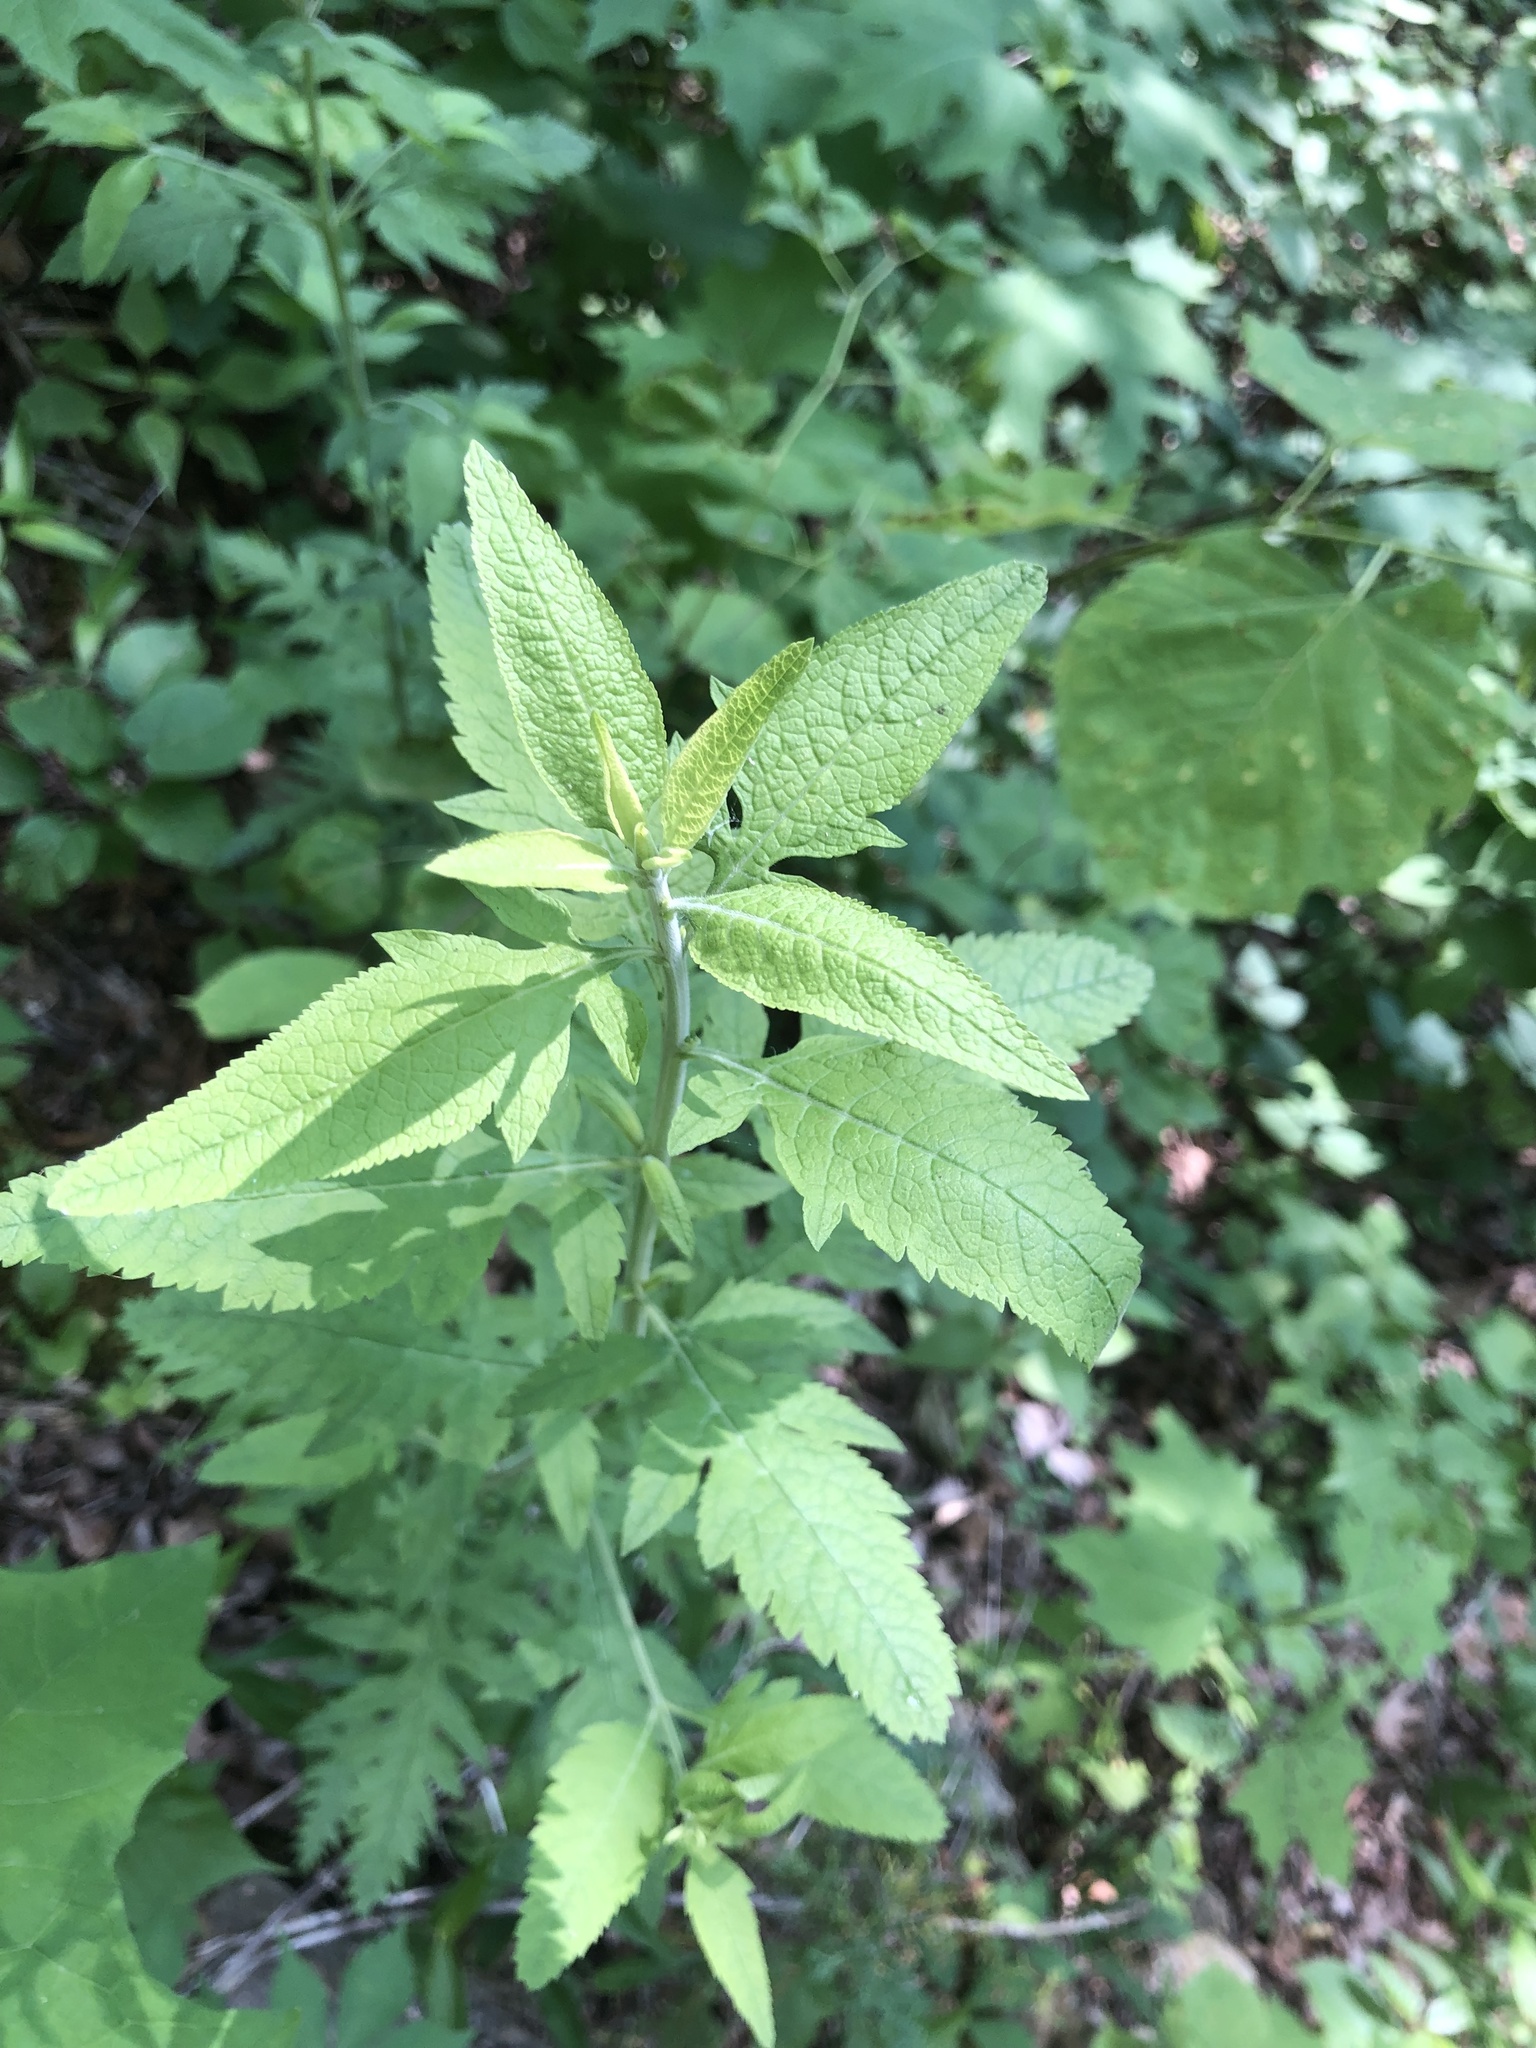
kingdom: Plantae
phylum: Tracheophyta
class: Magnoliopsida
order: Lamiales
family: Orobanchaceae
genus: Dasistoma
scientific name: Dasistoma macrophyllum
